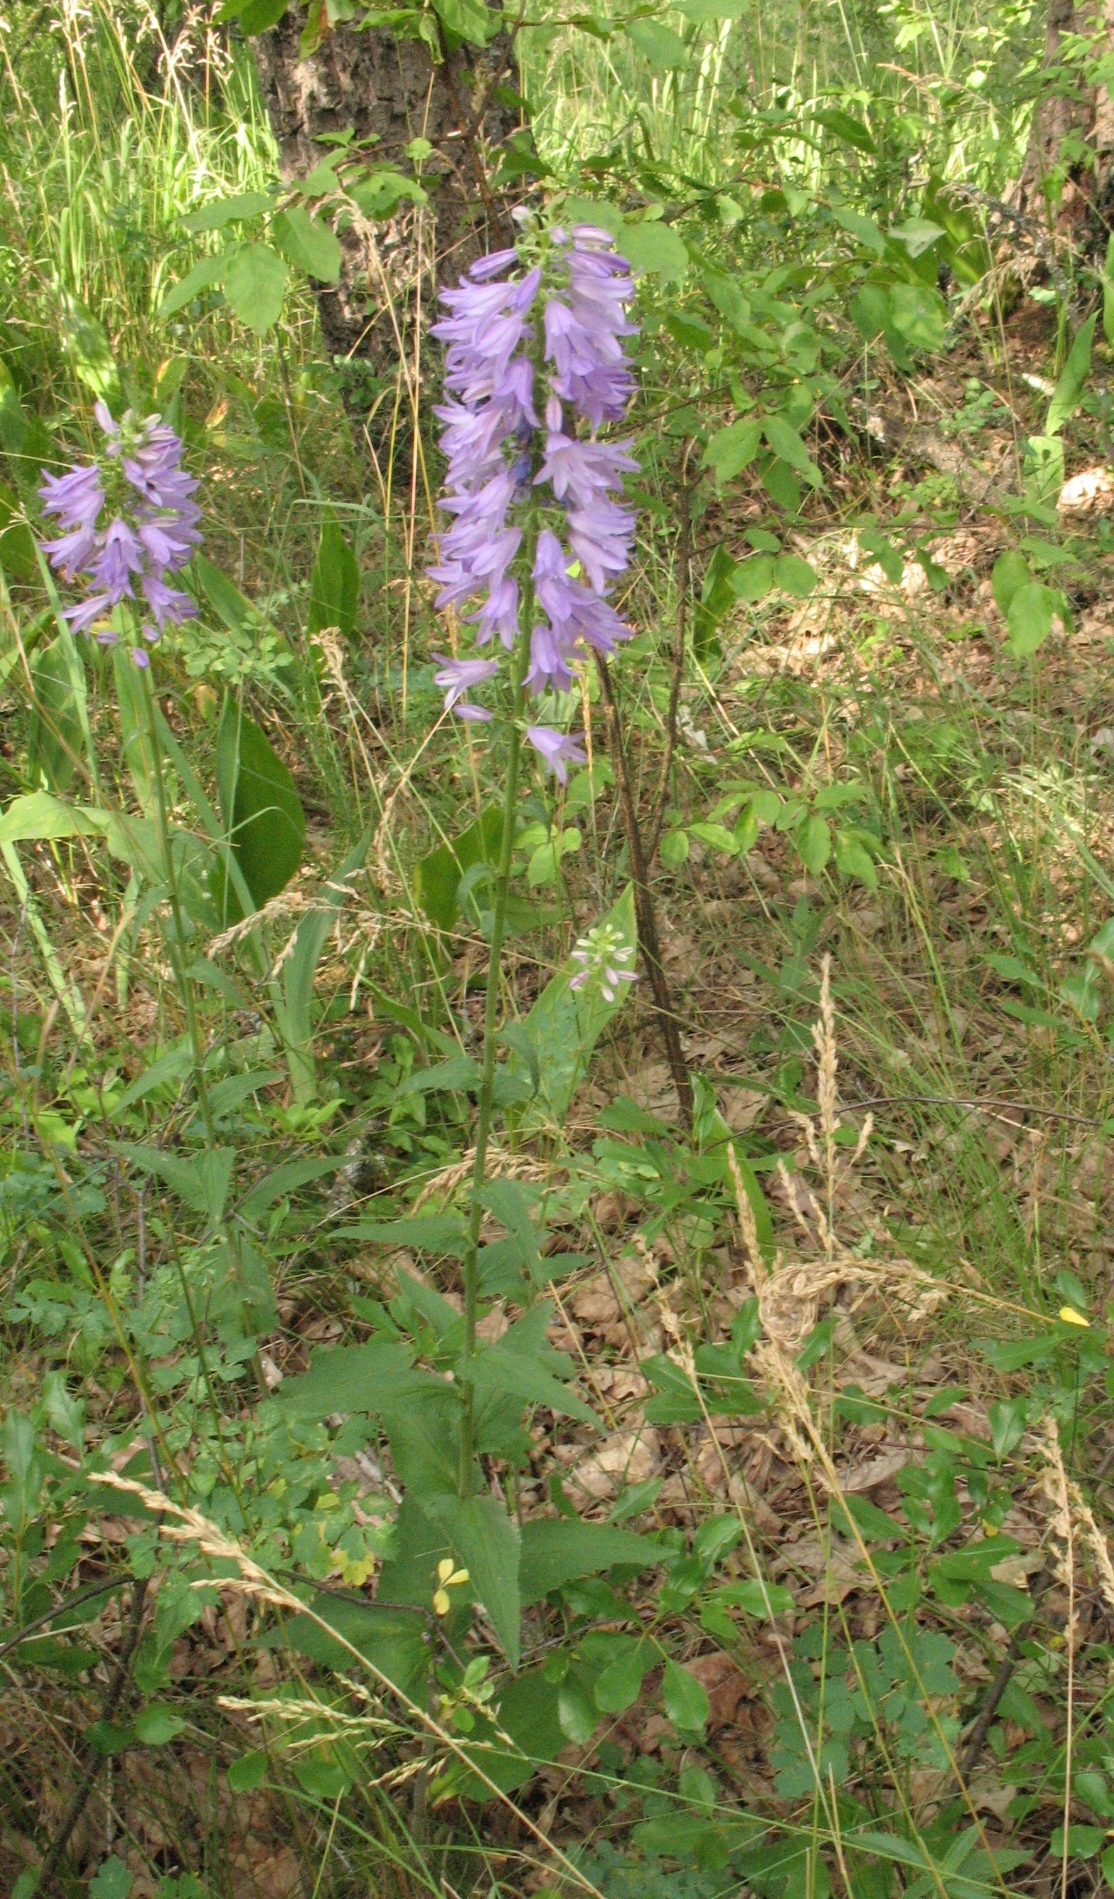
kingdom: Plantae
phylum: Tracheophyta
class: Magnoliopsida
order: Asterales
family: Campanulaceae
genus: Campanula
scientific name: Campanula bononiensis
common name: Pale bellflower
